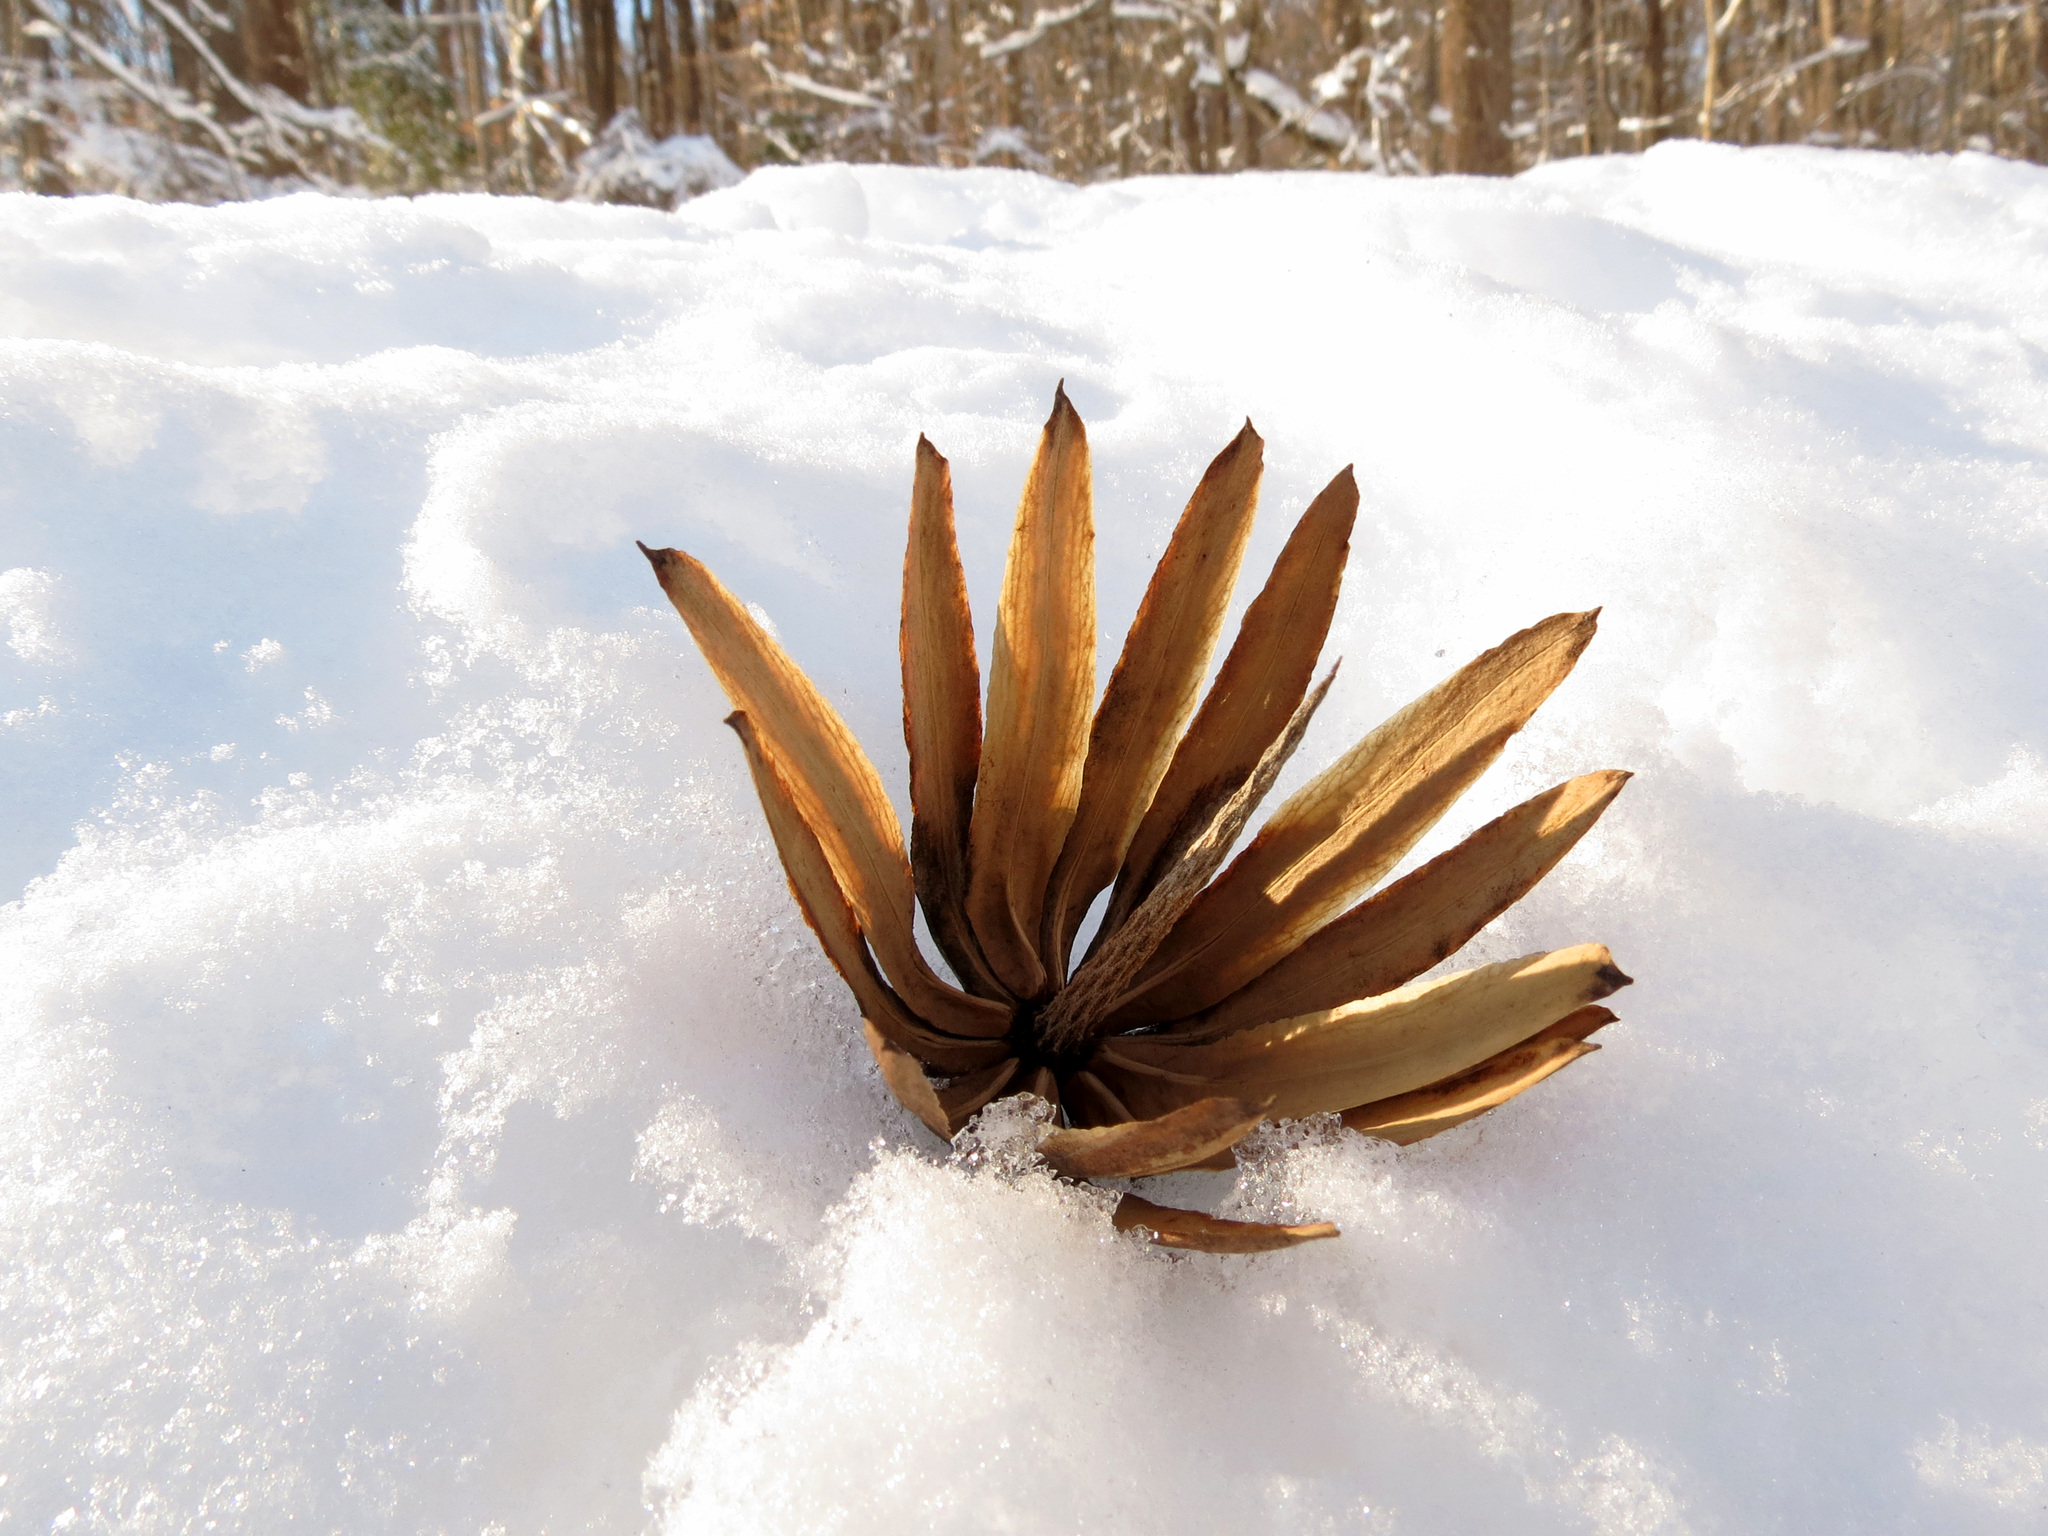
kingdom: Plantae
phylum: Tracheophyta
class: Magnoliopsida
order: Magnoliales
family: Magnoliaceae
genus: Liriodendron
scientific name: Liriodendron tulipifera
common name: Tulip tree
